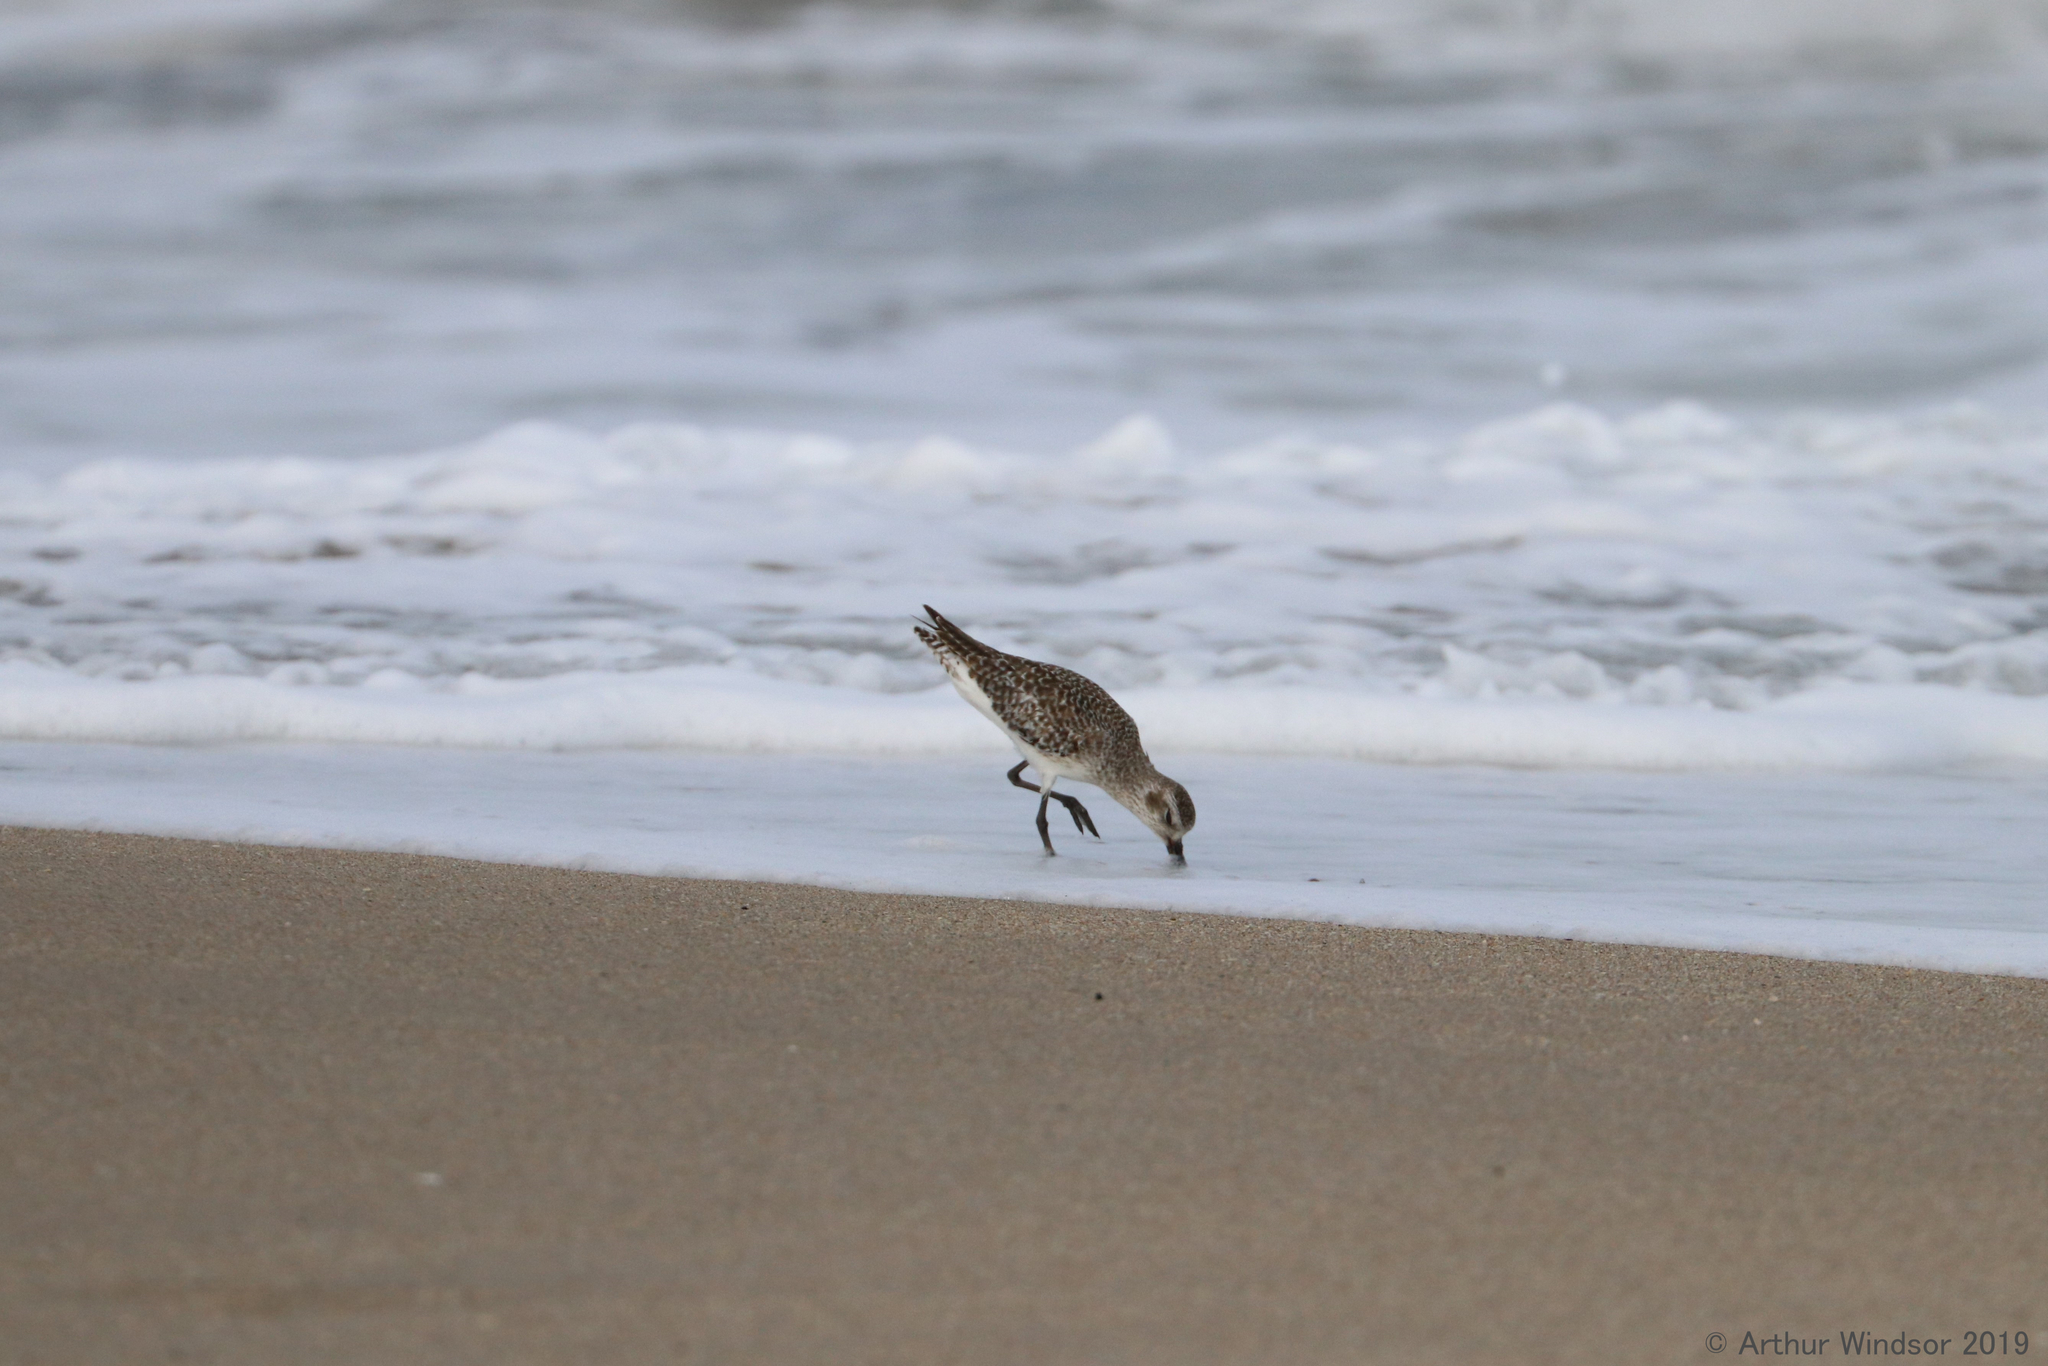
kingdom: Animalia
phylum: Chordata
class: Aves
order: Charadriiformes
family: Charadriidae
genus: Pluvialis
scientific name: Pluvialis squatarola
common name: Grey plover
